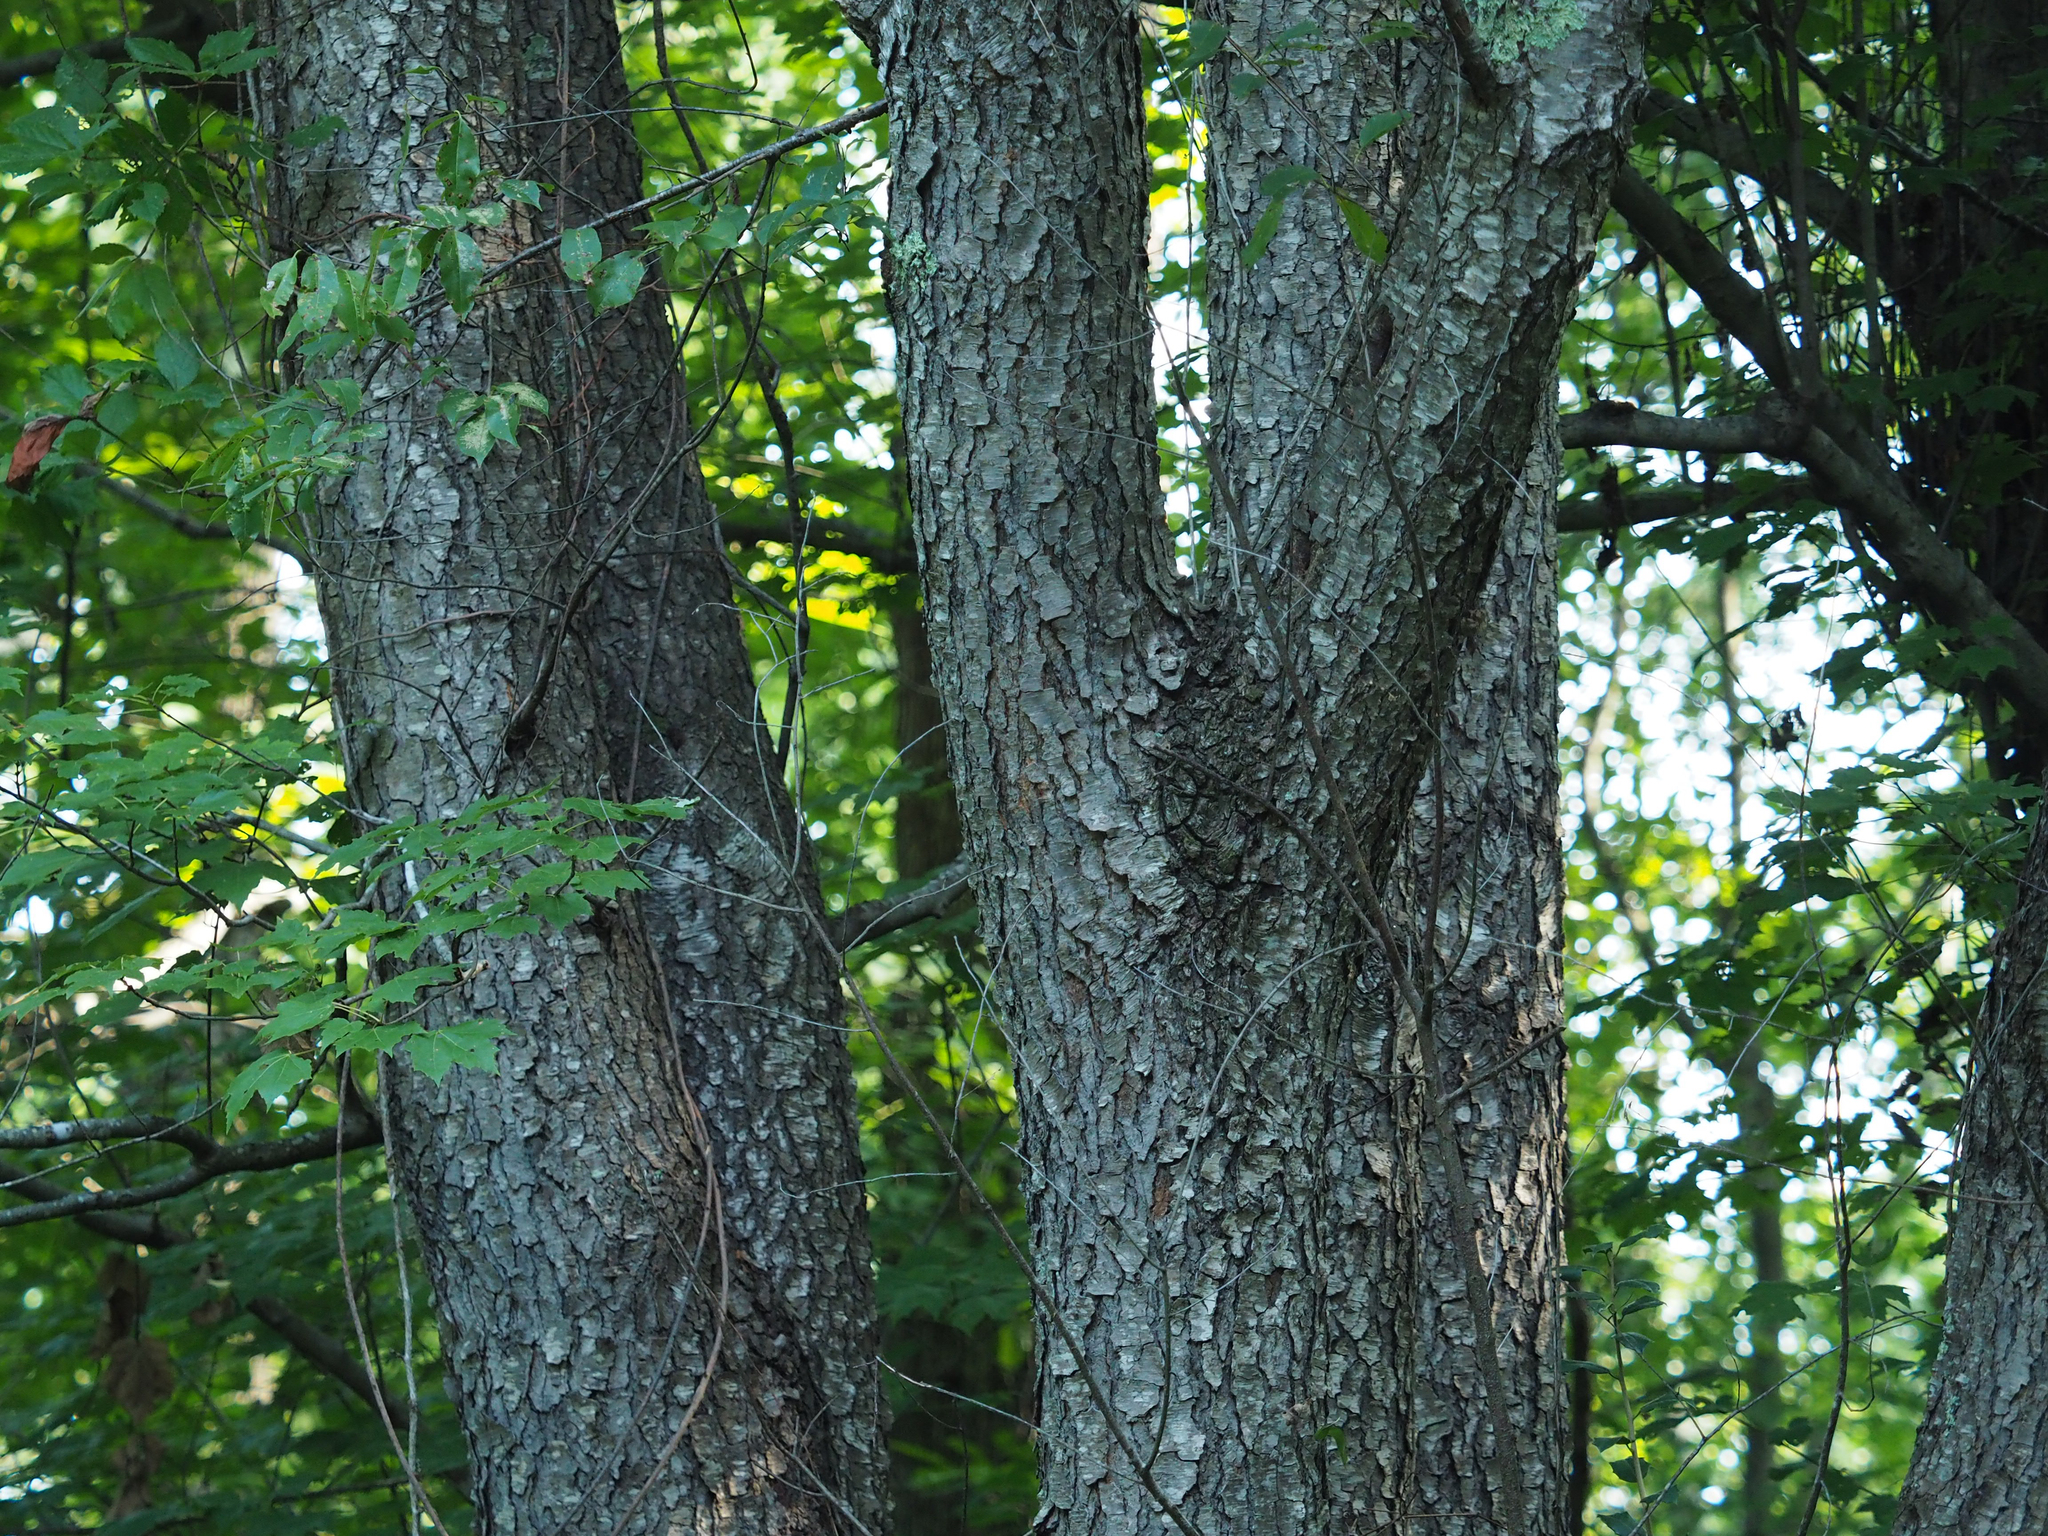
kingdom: Plantae
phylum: Tracheophyta
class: Magnoliopsida
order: Rosales
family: Rosaceae
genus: Prunus
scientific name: Prunus serotina
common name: Black cherry
